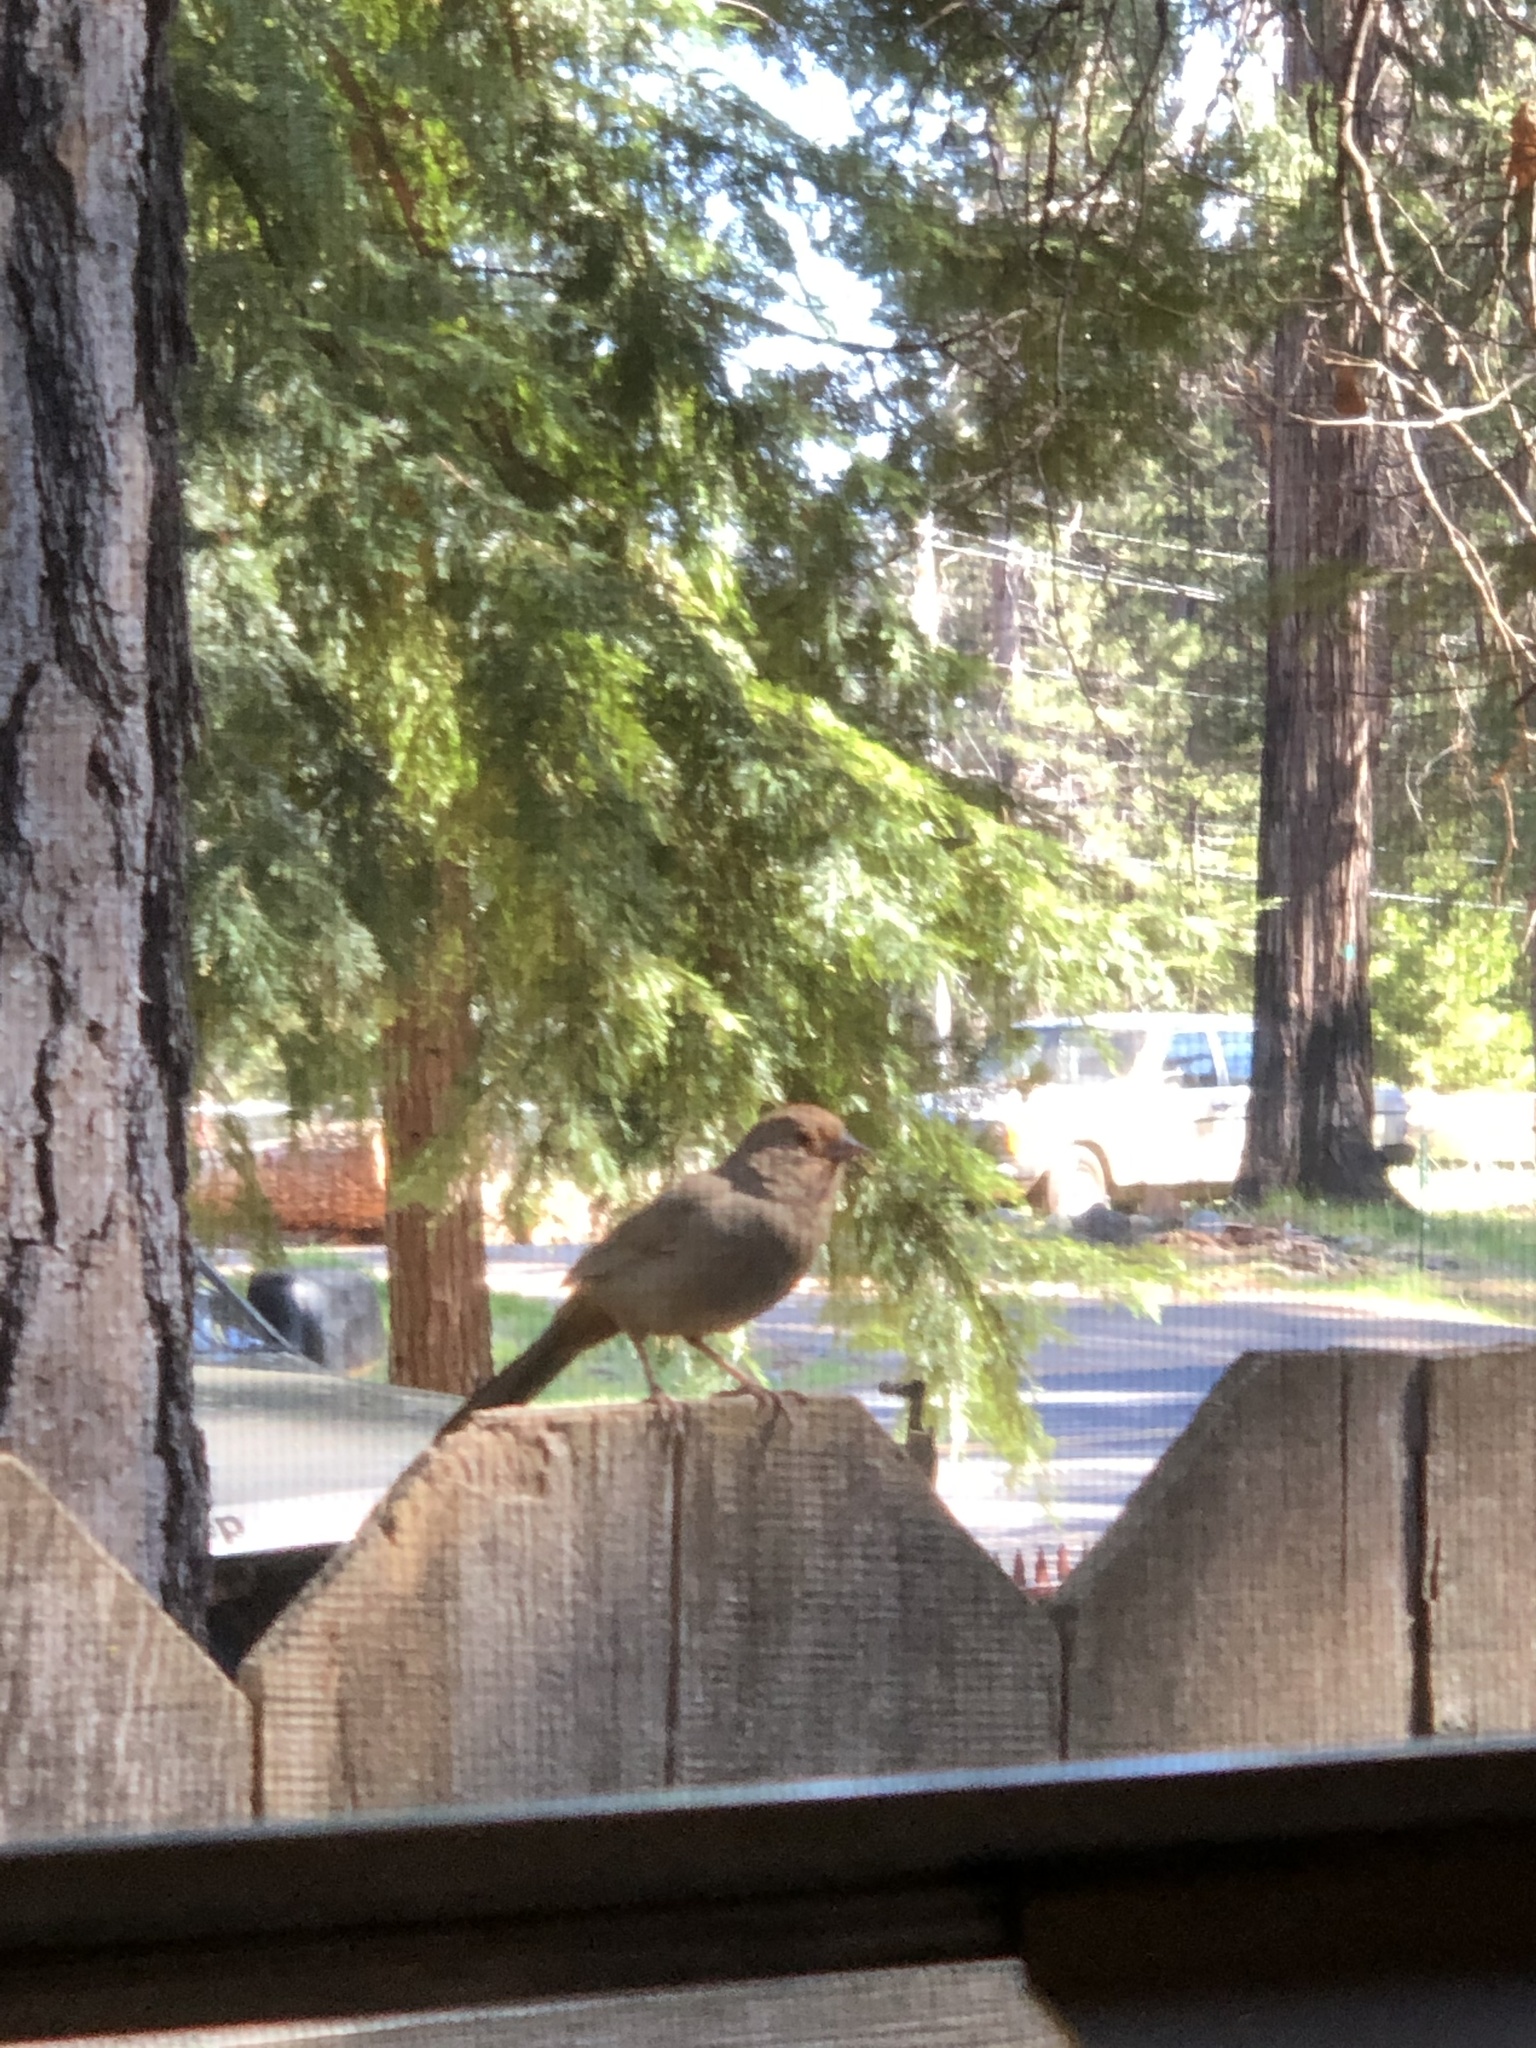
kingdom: Animalia
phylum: Chordata
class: Aves
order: Passeriformes
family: Passerellidae
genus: Melozone
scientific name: Melozone crissalis
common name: California towhee
